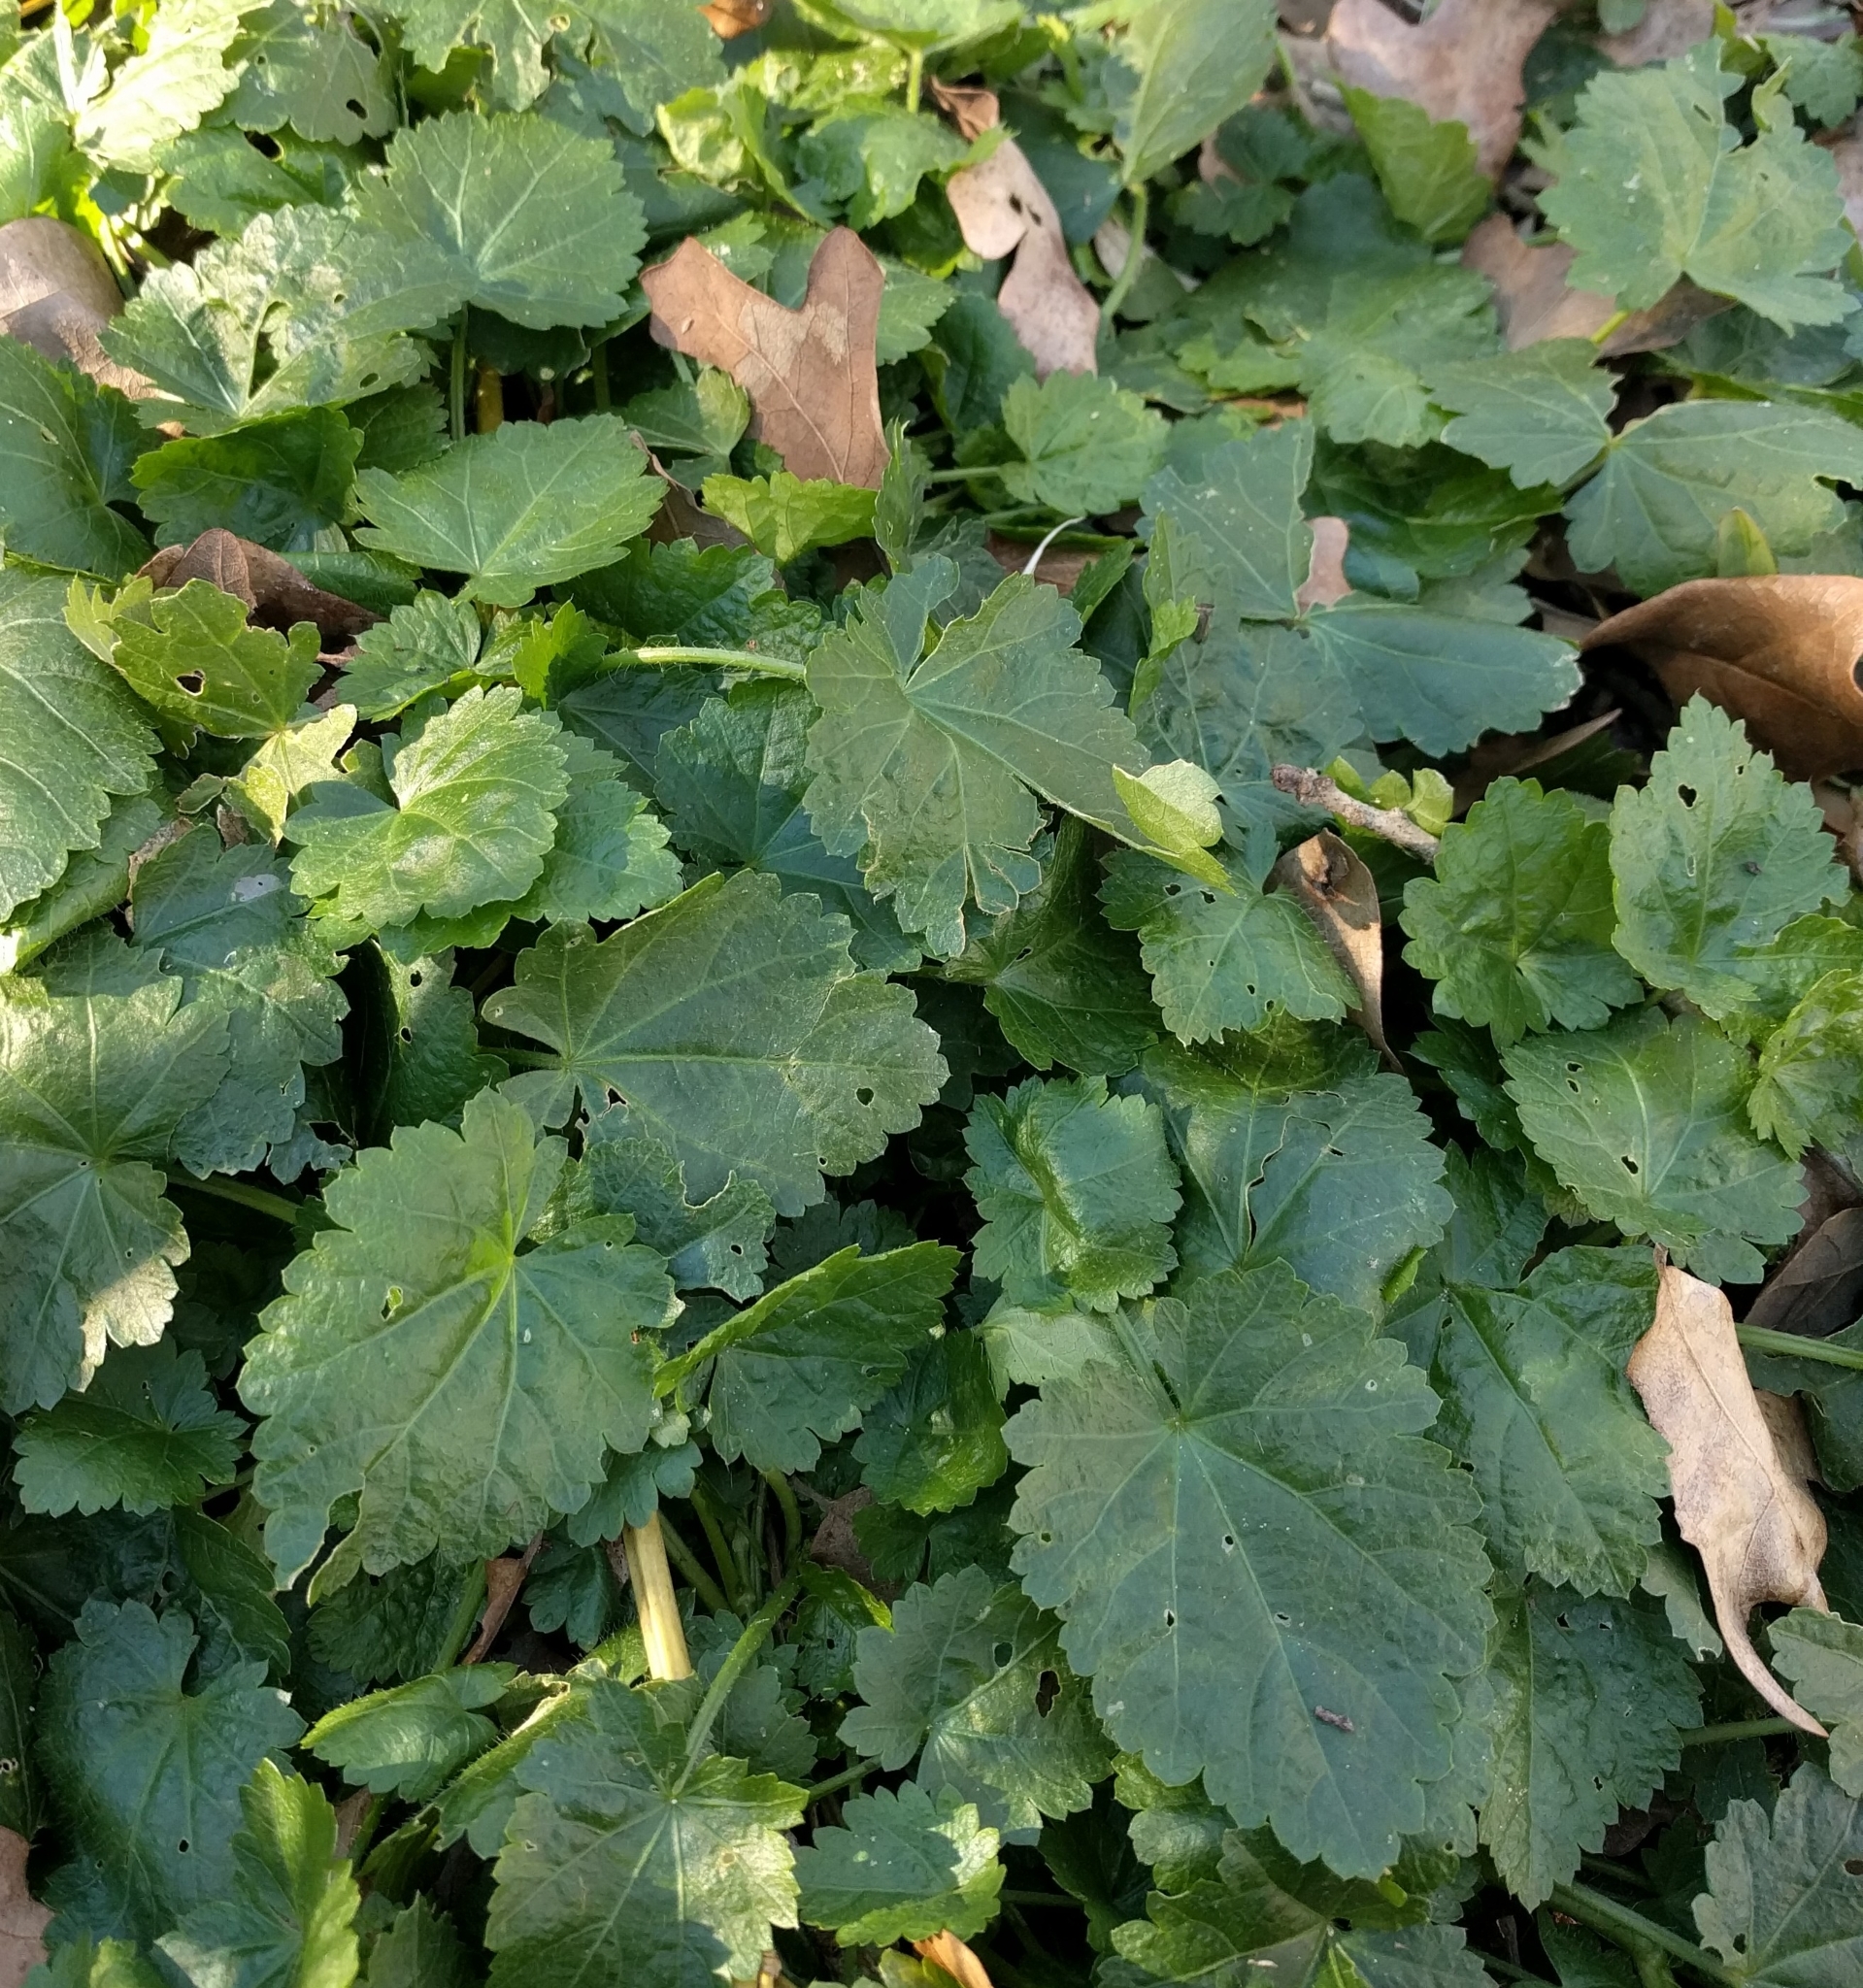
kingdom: Plantae
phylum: Tracheophyta
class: Magnoliopsida
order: Malvales
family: Malvaceae
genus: Modiola
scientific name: Modiola caroliniana
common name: Carolina bristlemallow
